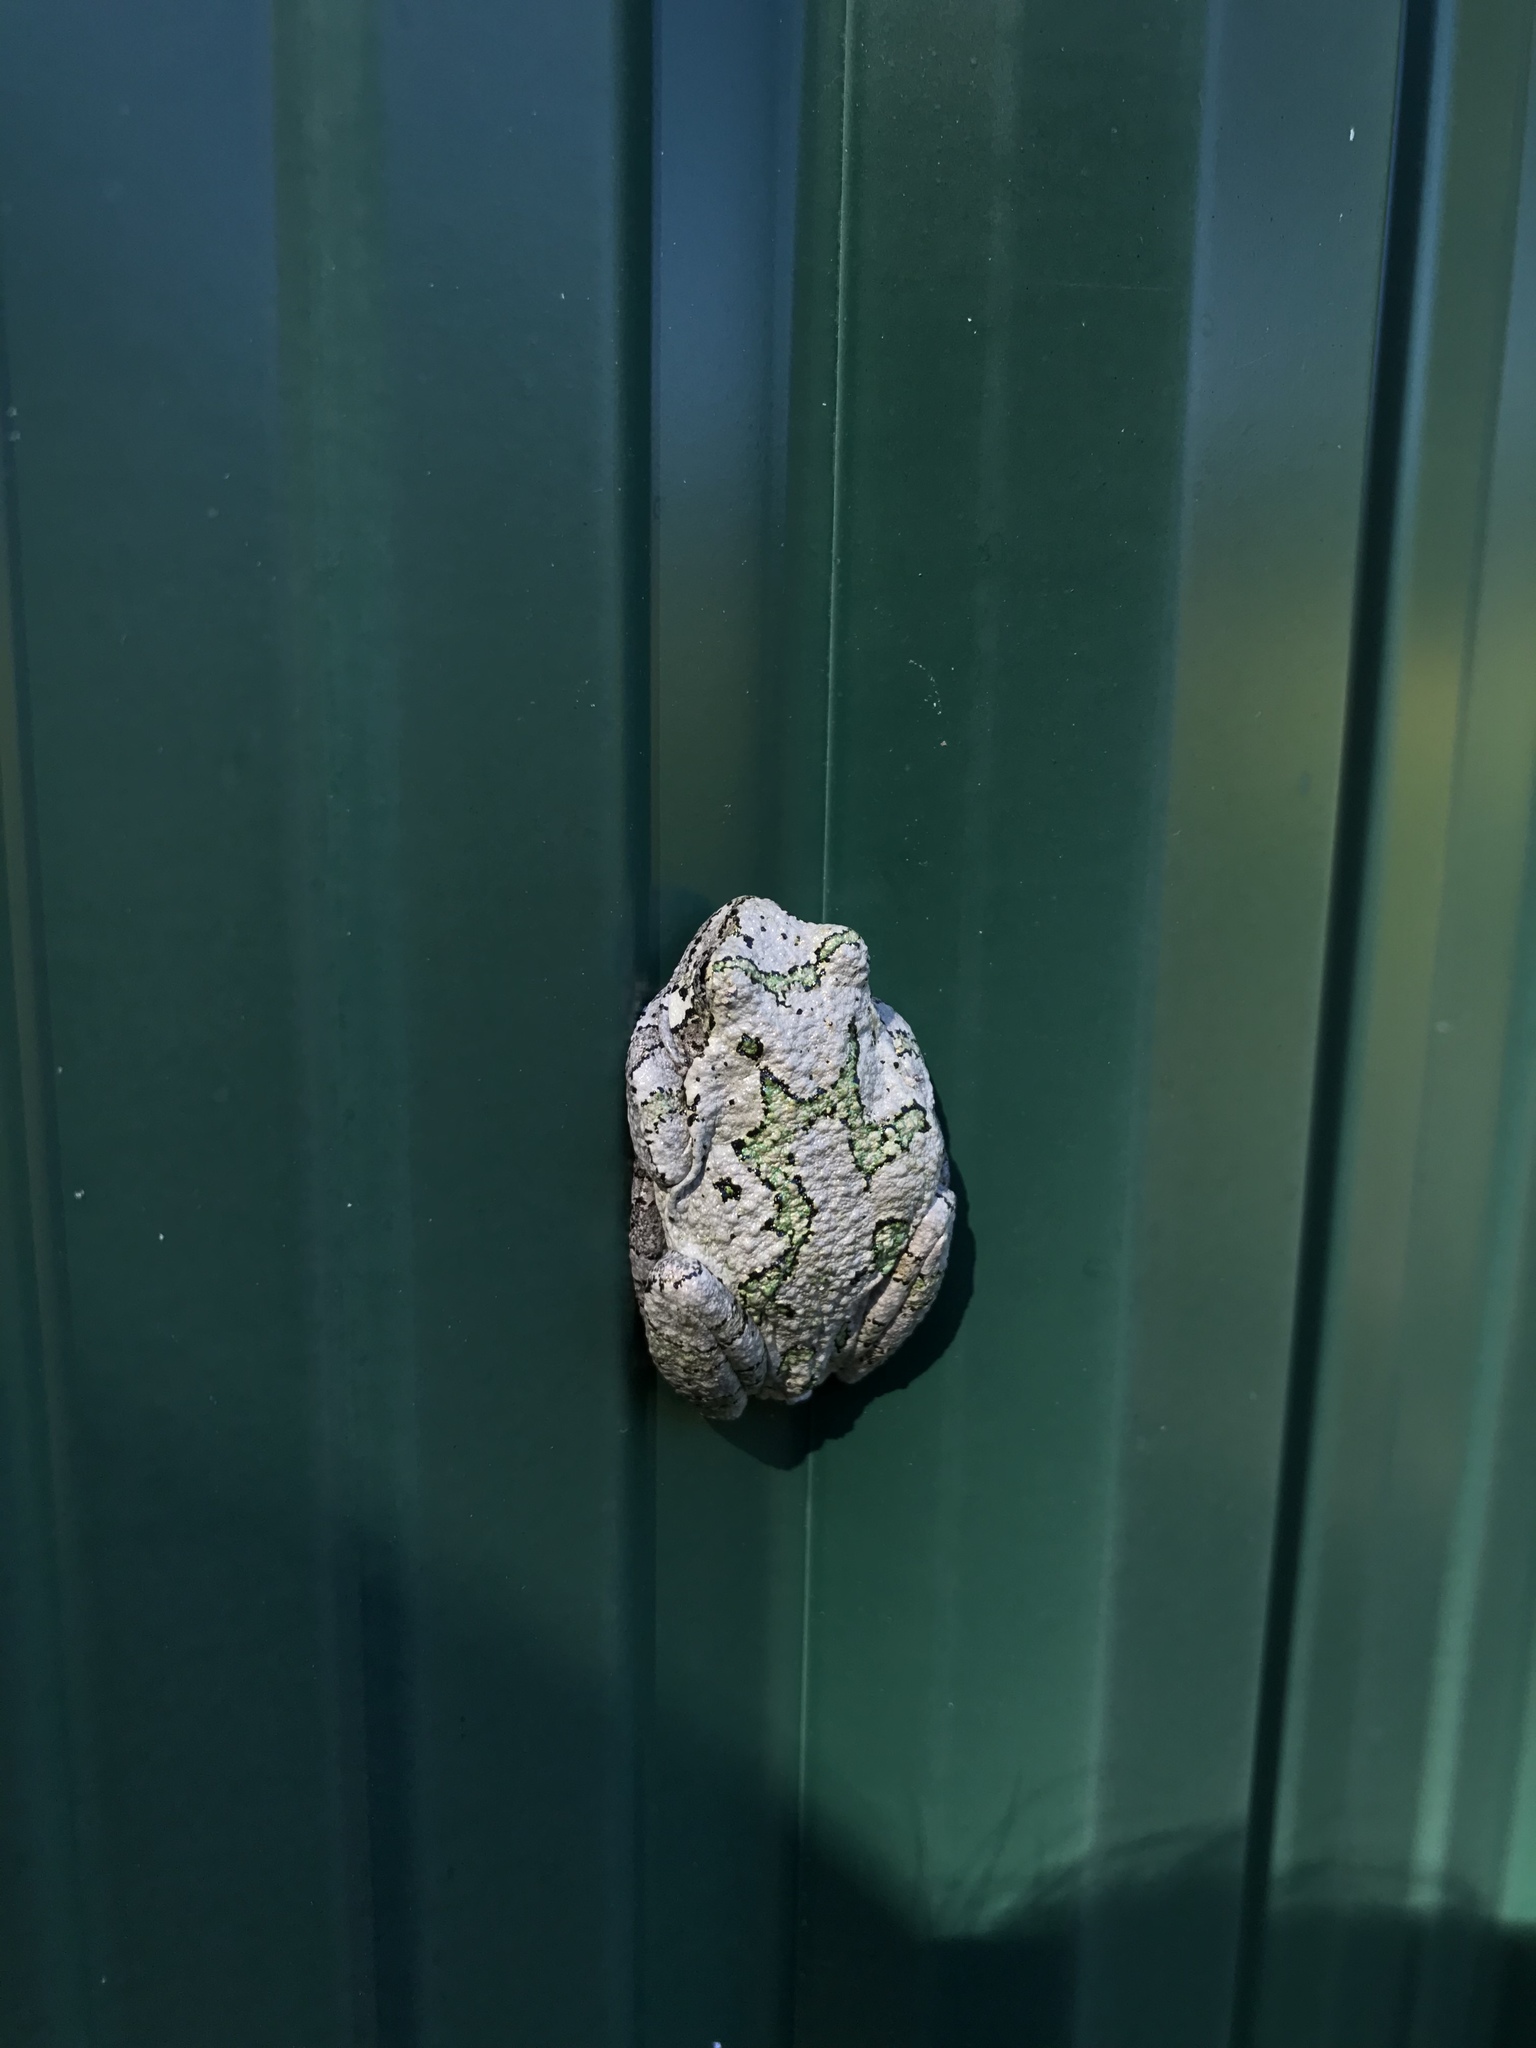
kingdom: Animalia
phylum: Chordata
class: Amphibia
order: Anura
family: Hylidae
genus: Dryophytes
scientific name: Dryophytes versicolor
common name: Gray treefrog
